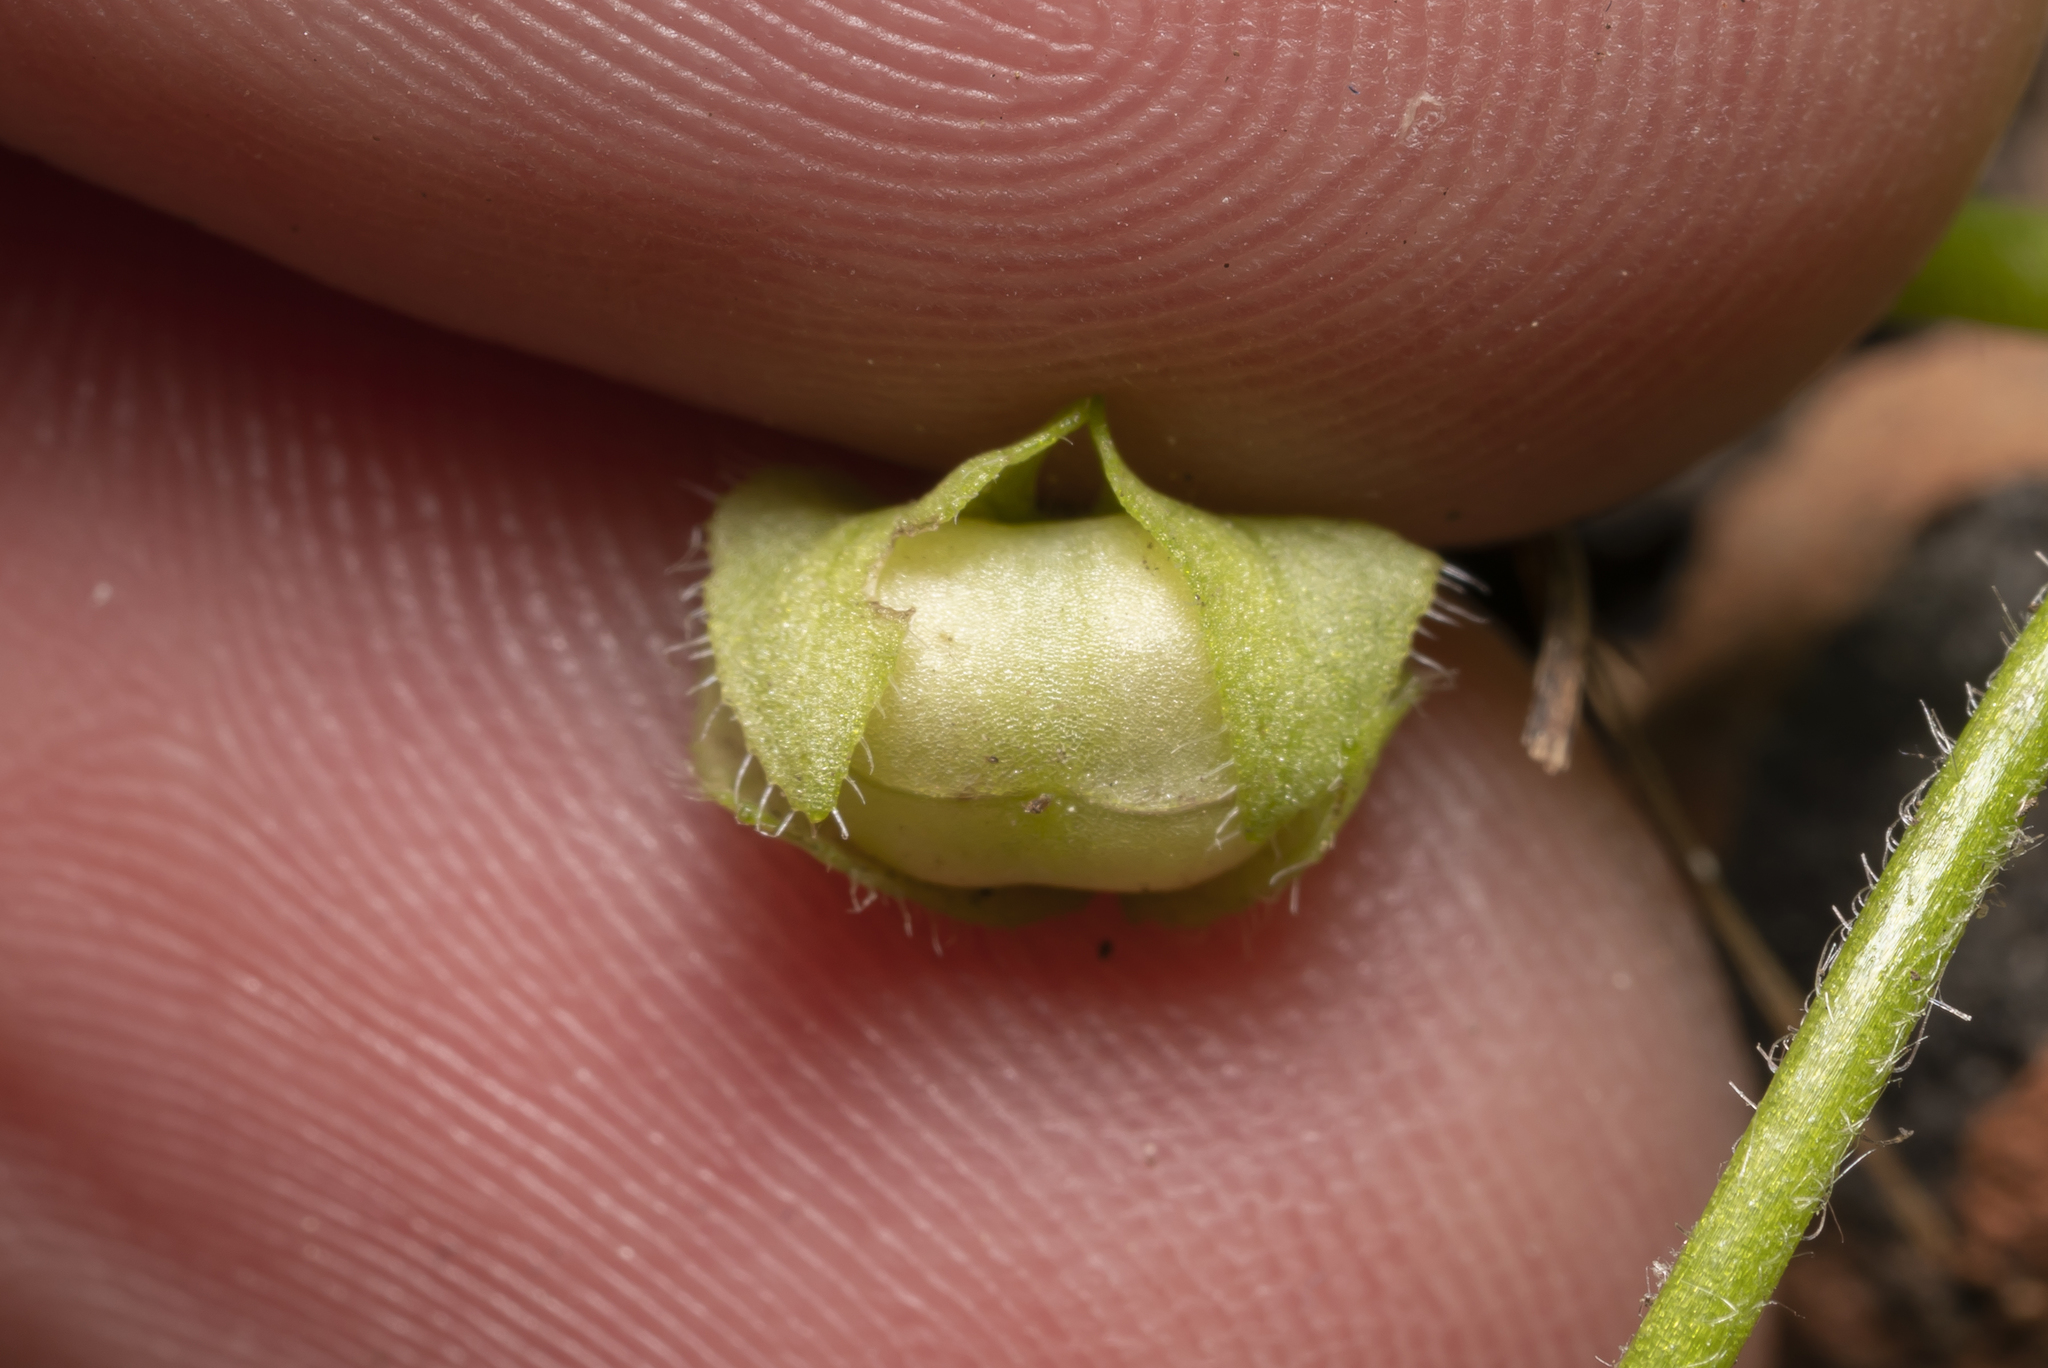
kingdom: Plantae
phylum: Tracheophyta
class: Magnoliopsida
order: Lamiales
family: Plantaginaceae
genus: Veronica
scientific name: Veronica hederifolia
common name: Ivy-leaved speedwell
